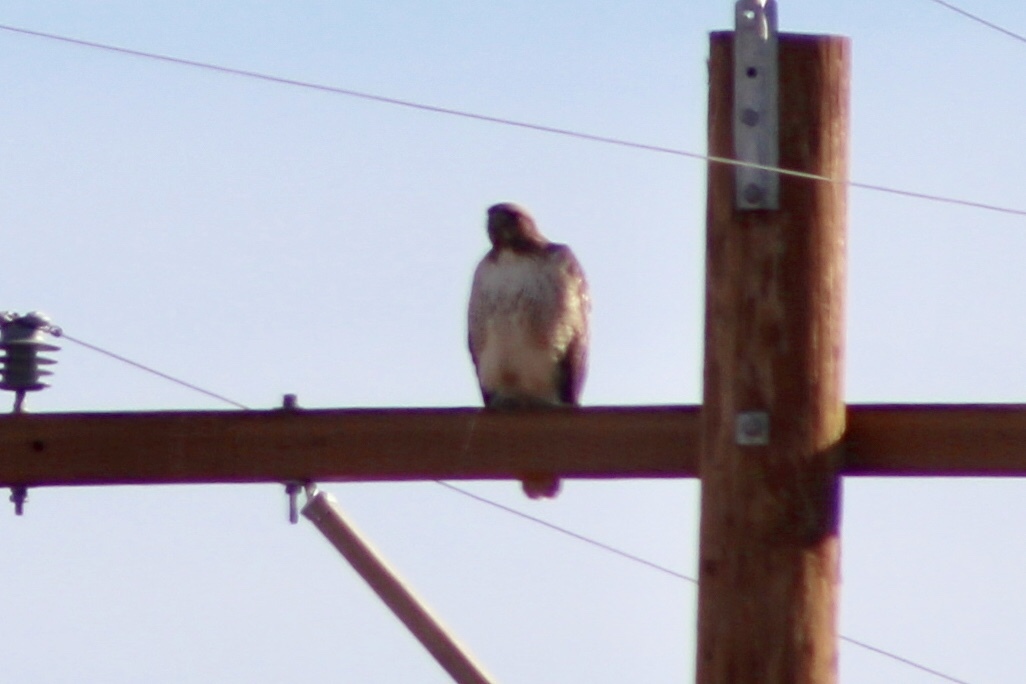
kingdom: Animalia
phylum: Chordata
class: Aves
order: Accipitriformes
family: Accipitridae
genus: Buteo
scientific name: Buteo jamaicensis
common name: Red-tailed hawk
